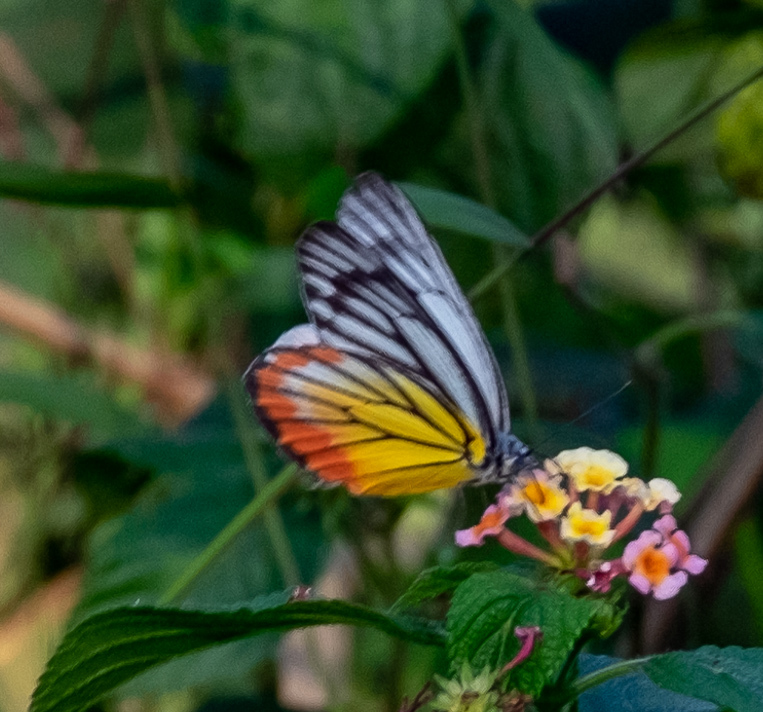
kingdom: Animalia
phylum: Arthropoda
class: Insecta
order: Lepidoptera
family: Pieridae
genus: Delias
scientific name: Delias hyparete
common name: Painted jezebel
